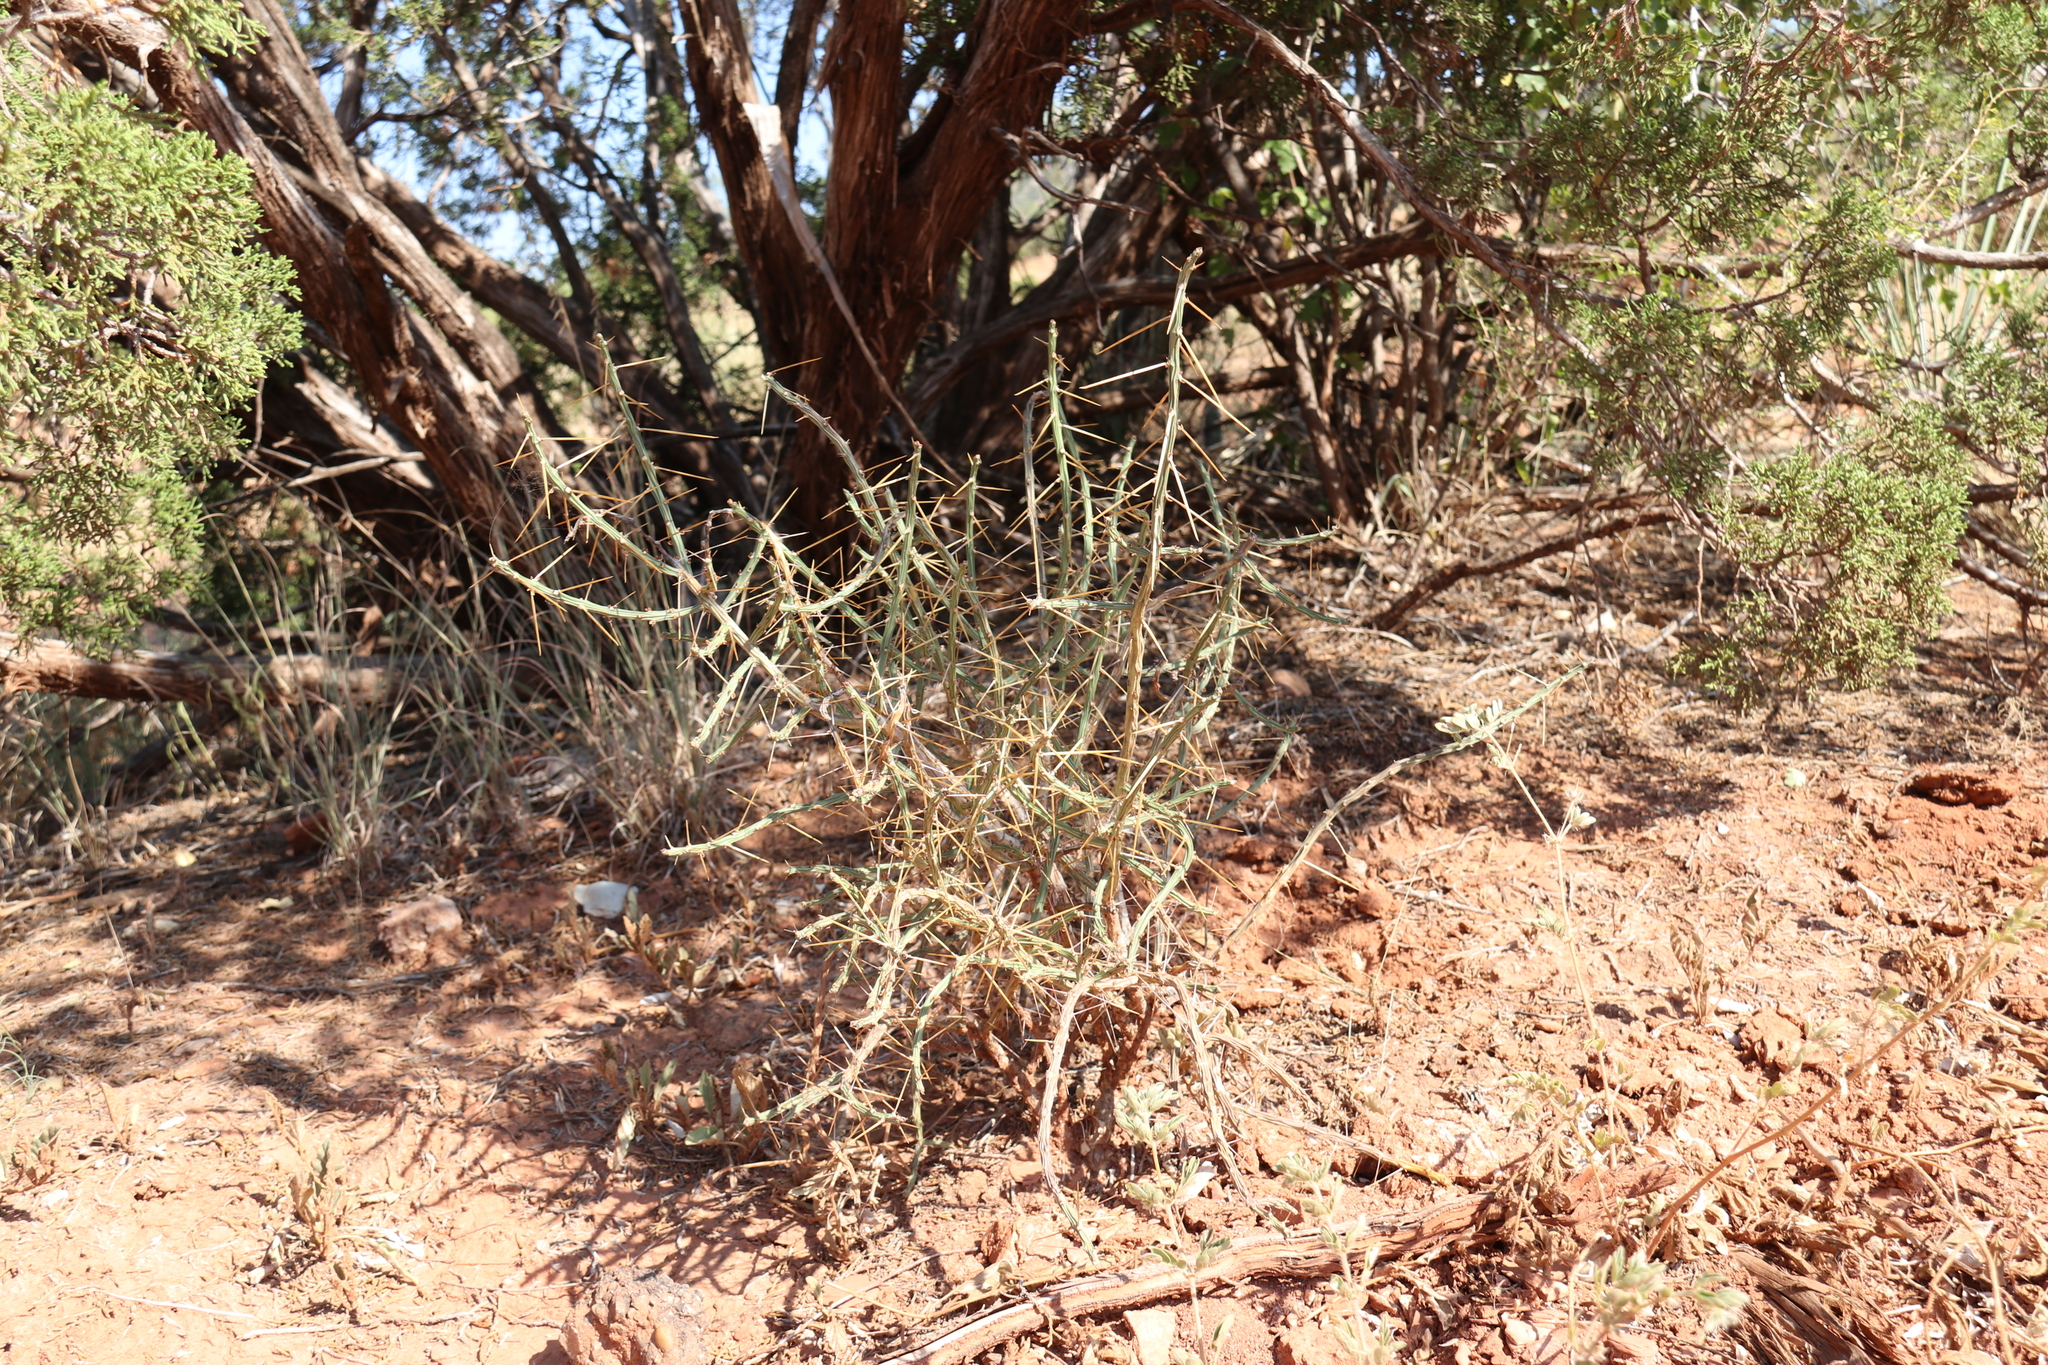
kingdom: Plantae
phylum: Tracheophyta
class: Magnoliopsida
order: Caryophyllales
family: Cactaceae
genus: Cylindropuntia
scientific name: Cylindropuntia leptocaulis
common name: Christmas cactus
